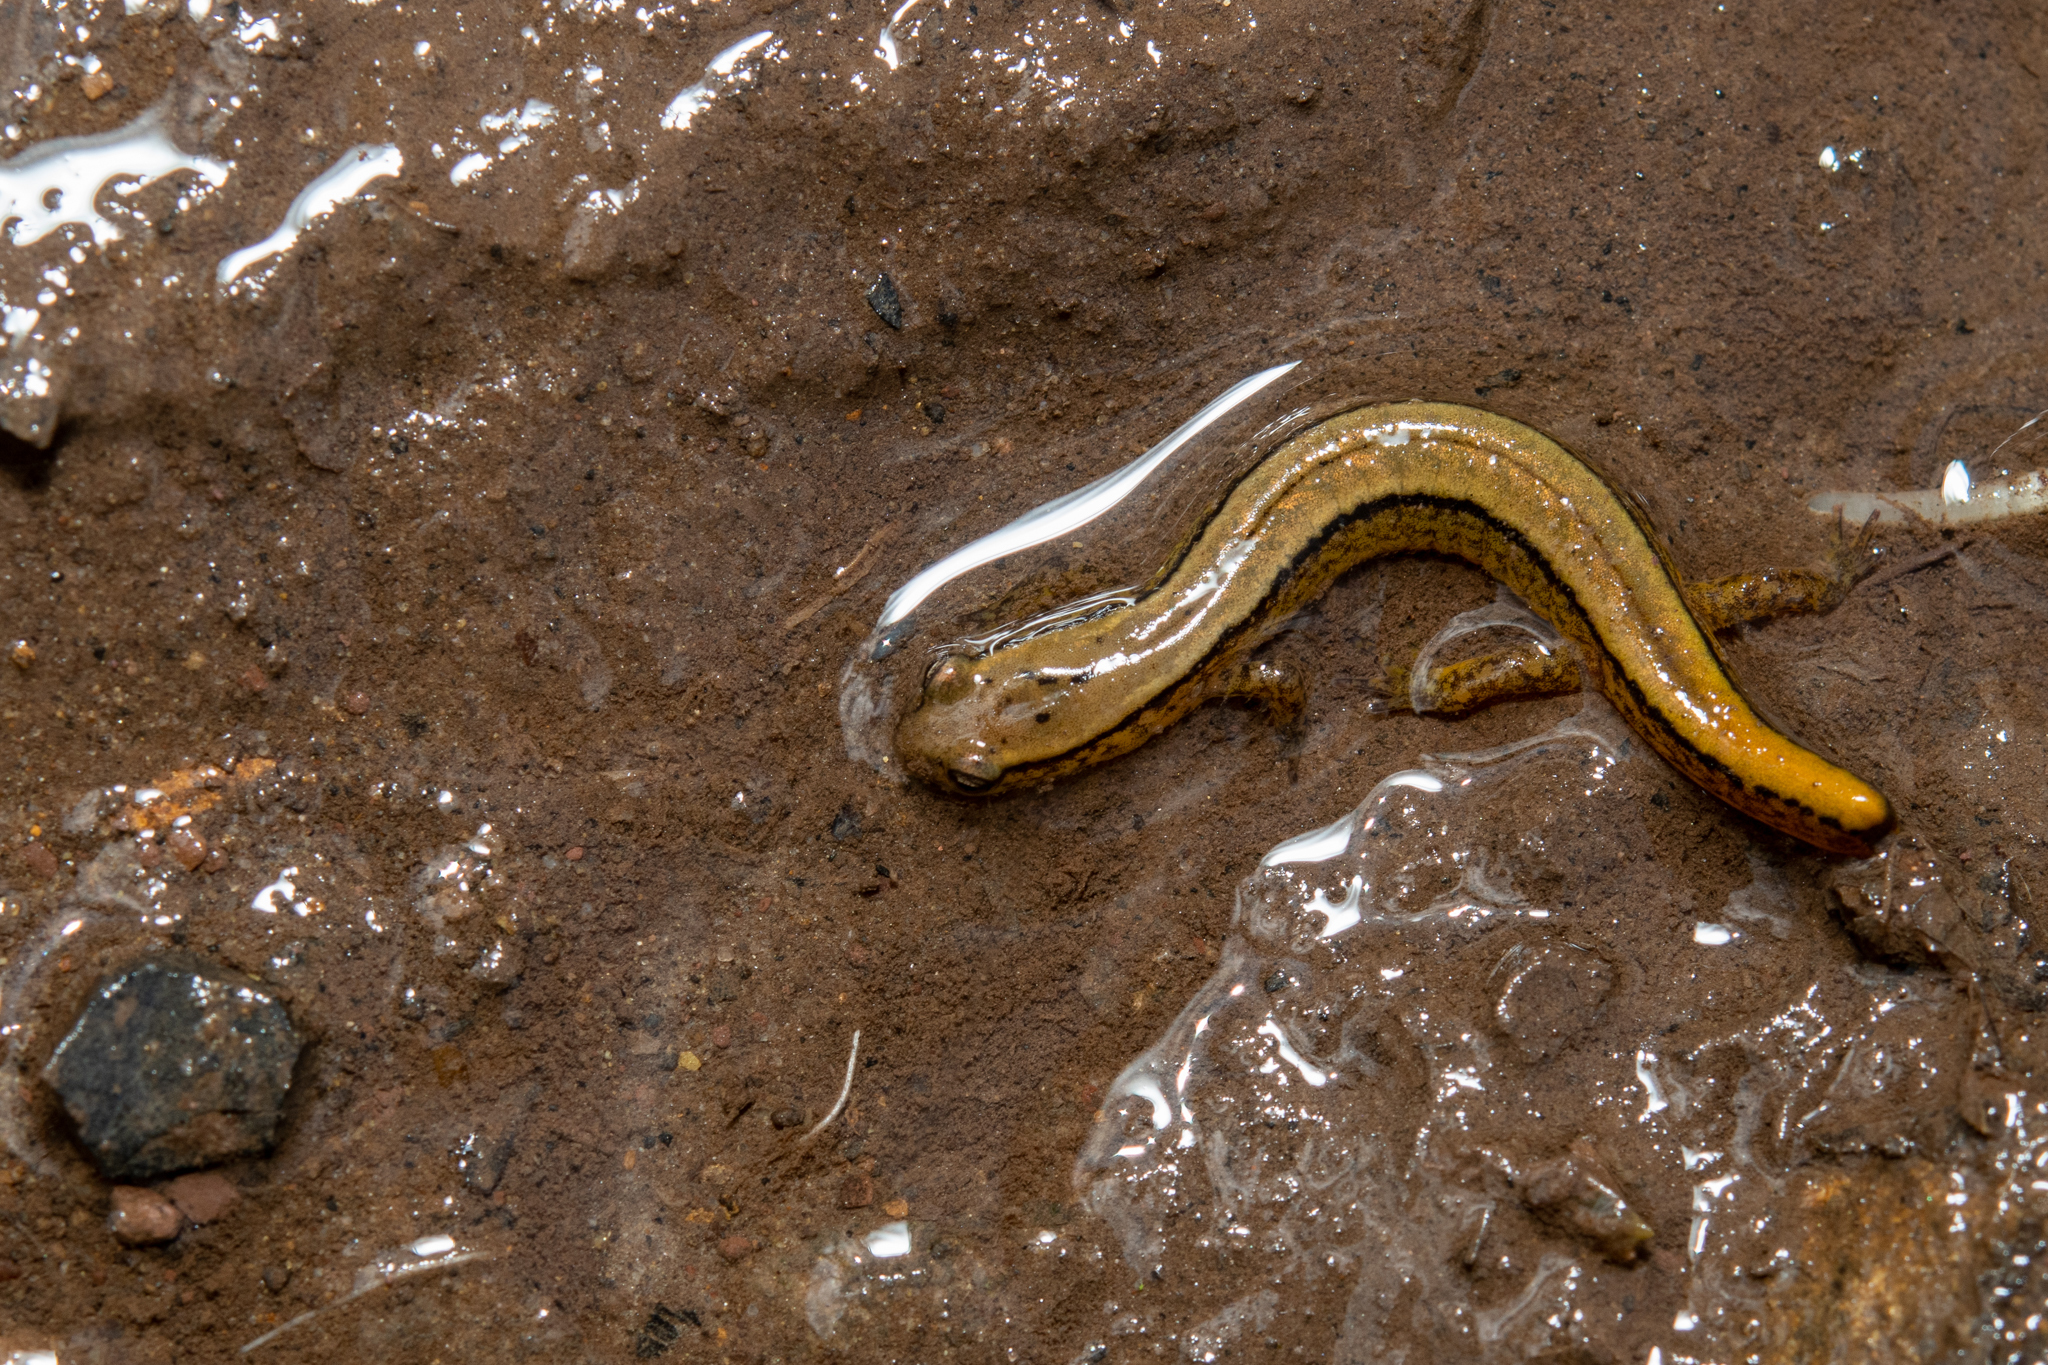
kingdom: Animalia
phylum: Chordata
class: Amphibia
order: Caudata
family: Plethodontidae
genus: Eurycea
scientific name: Eurycea bislineata
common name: Northern two-lined salamander
